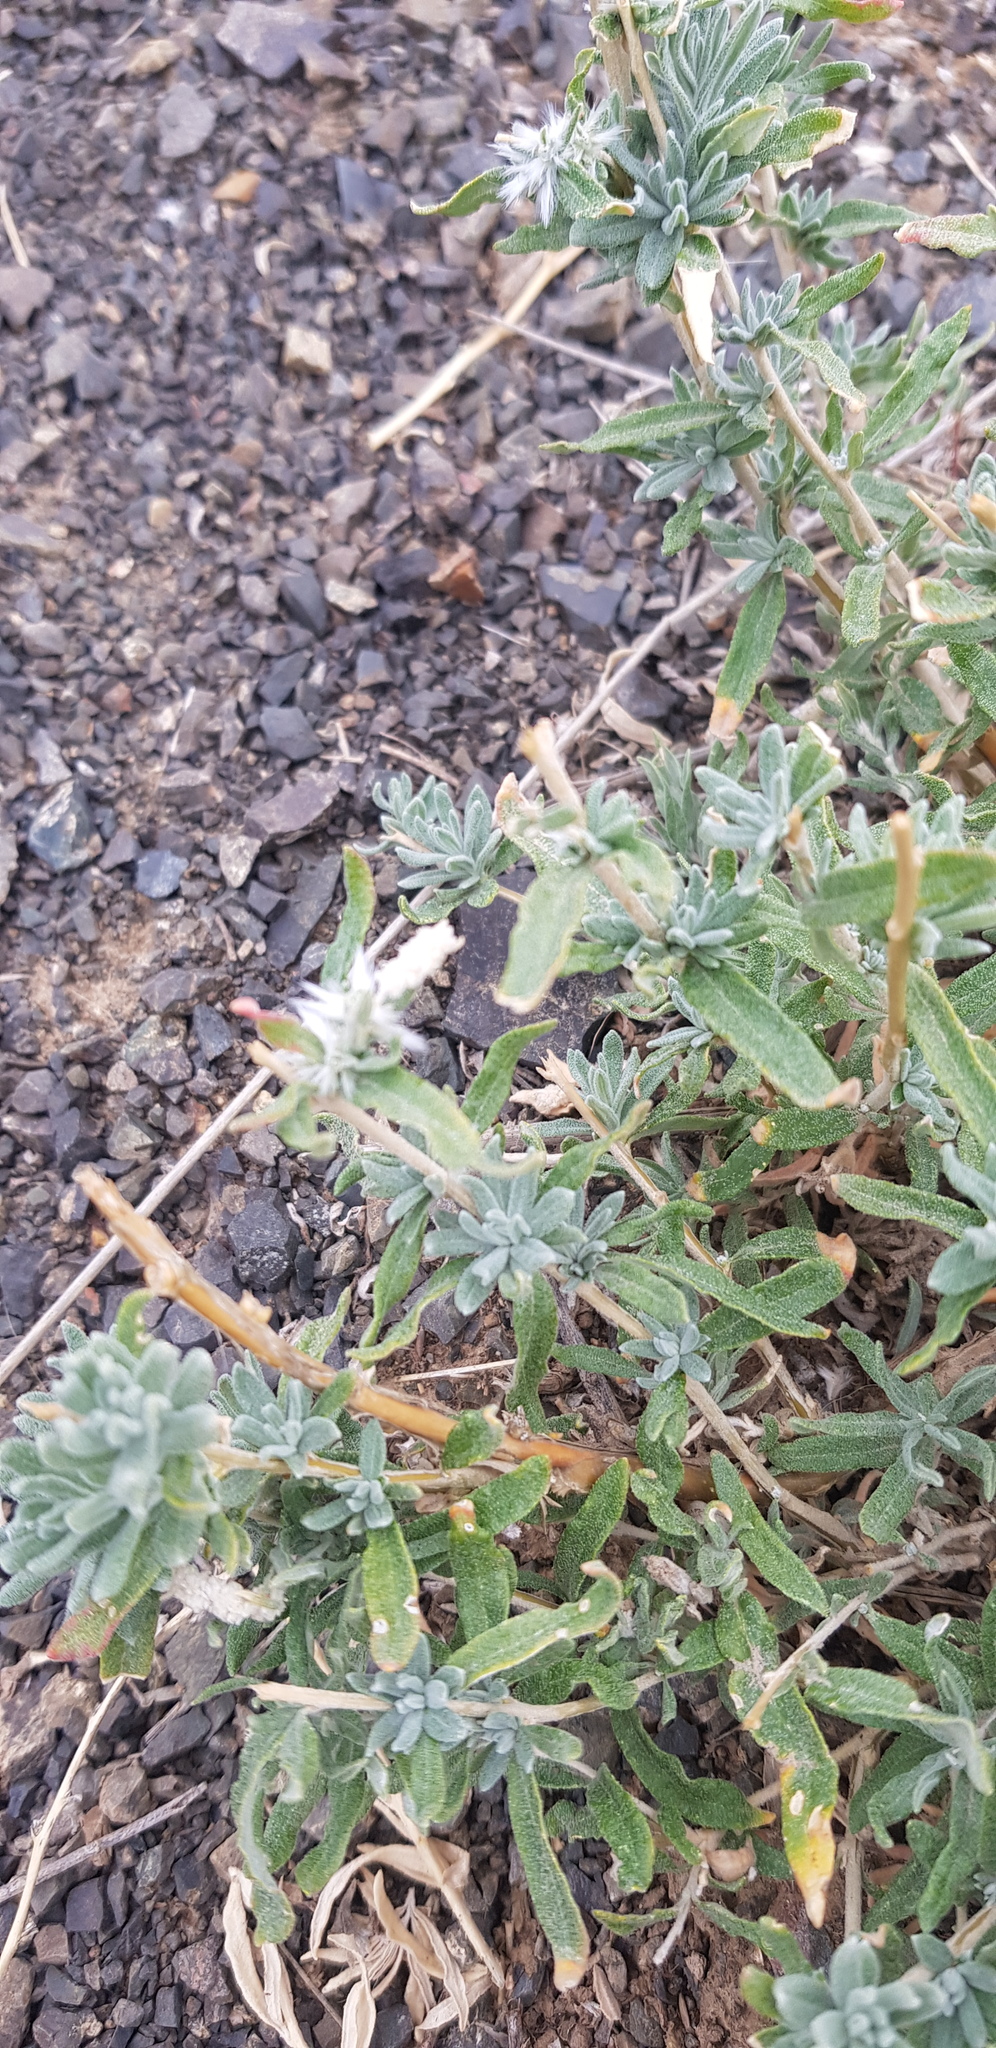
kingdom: Plantae
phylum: Tracheophyta
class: Magnoliopsida
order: Caryophyllales
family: Amaranthaceae
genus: Krascheninnikovia
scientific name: Krascheninnikovia ceratoides
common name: Pamirian winterfat
